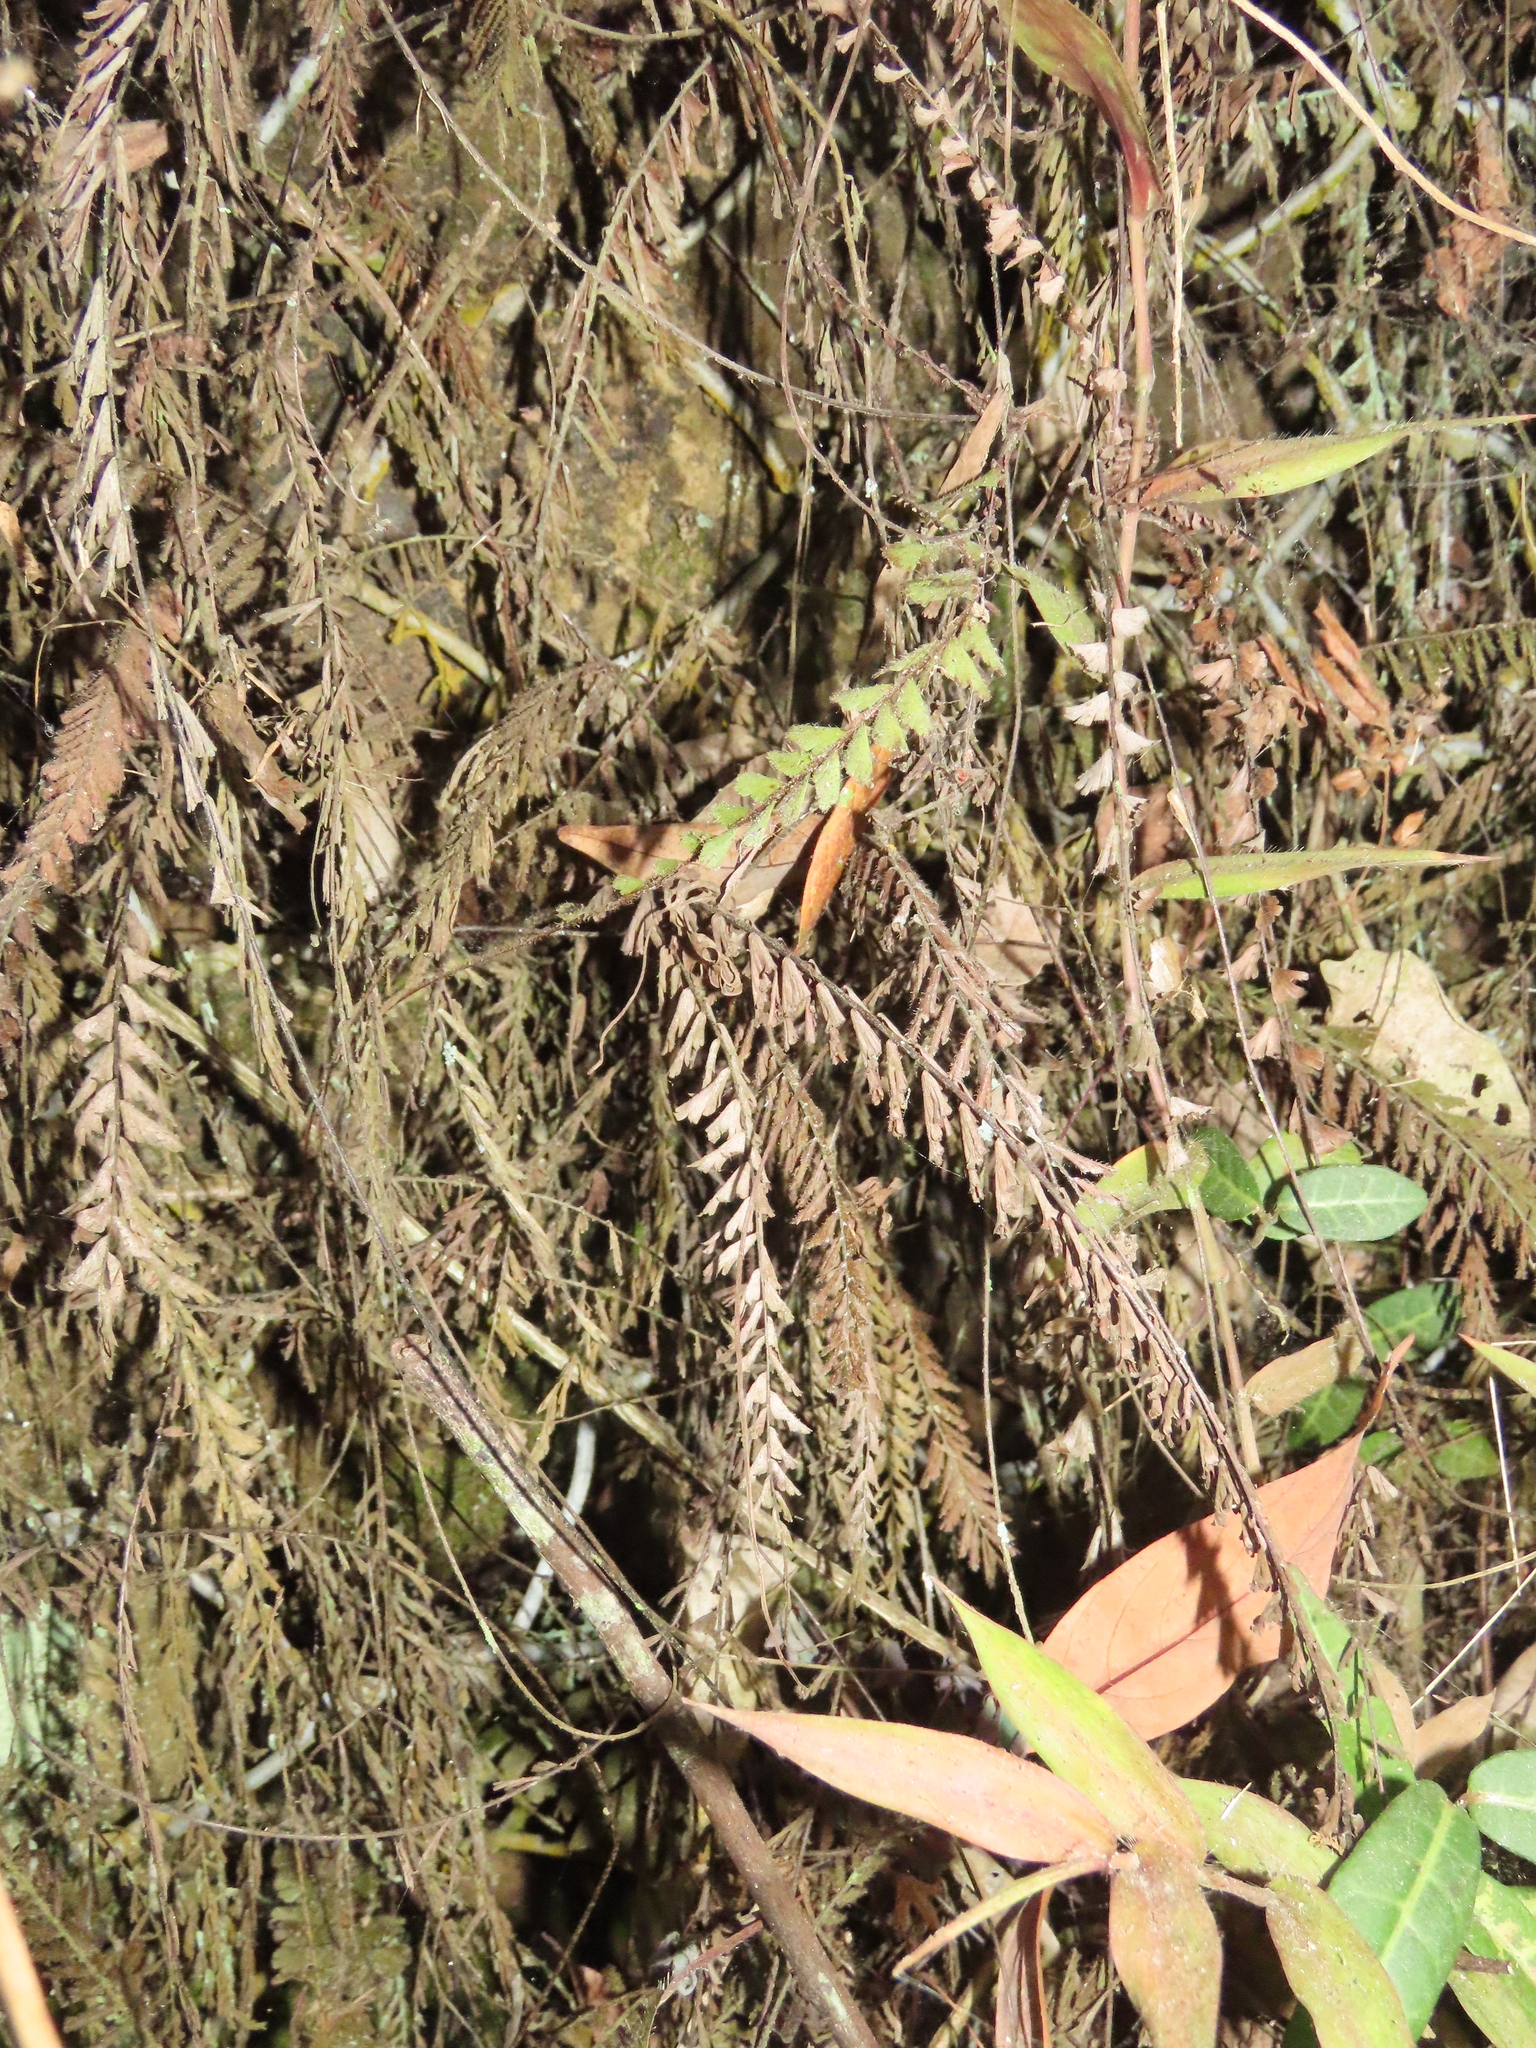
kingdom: Plantae
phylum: Tracheophyta
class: Polypodiopsida
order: Polypodiales
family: Pteridaceae
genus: Adiantum
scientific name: Adiantum caudatum
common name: Tailed maidenhair
